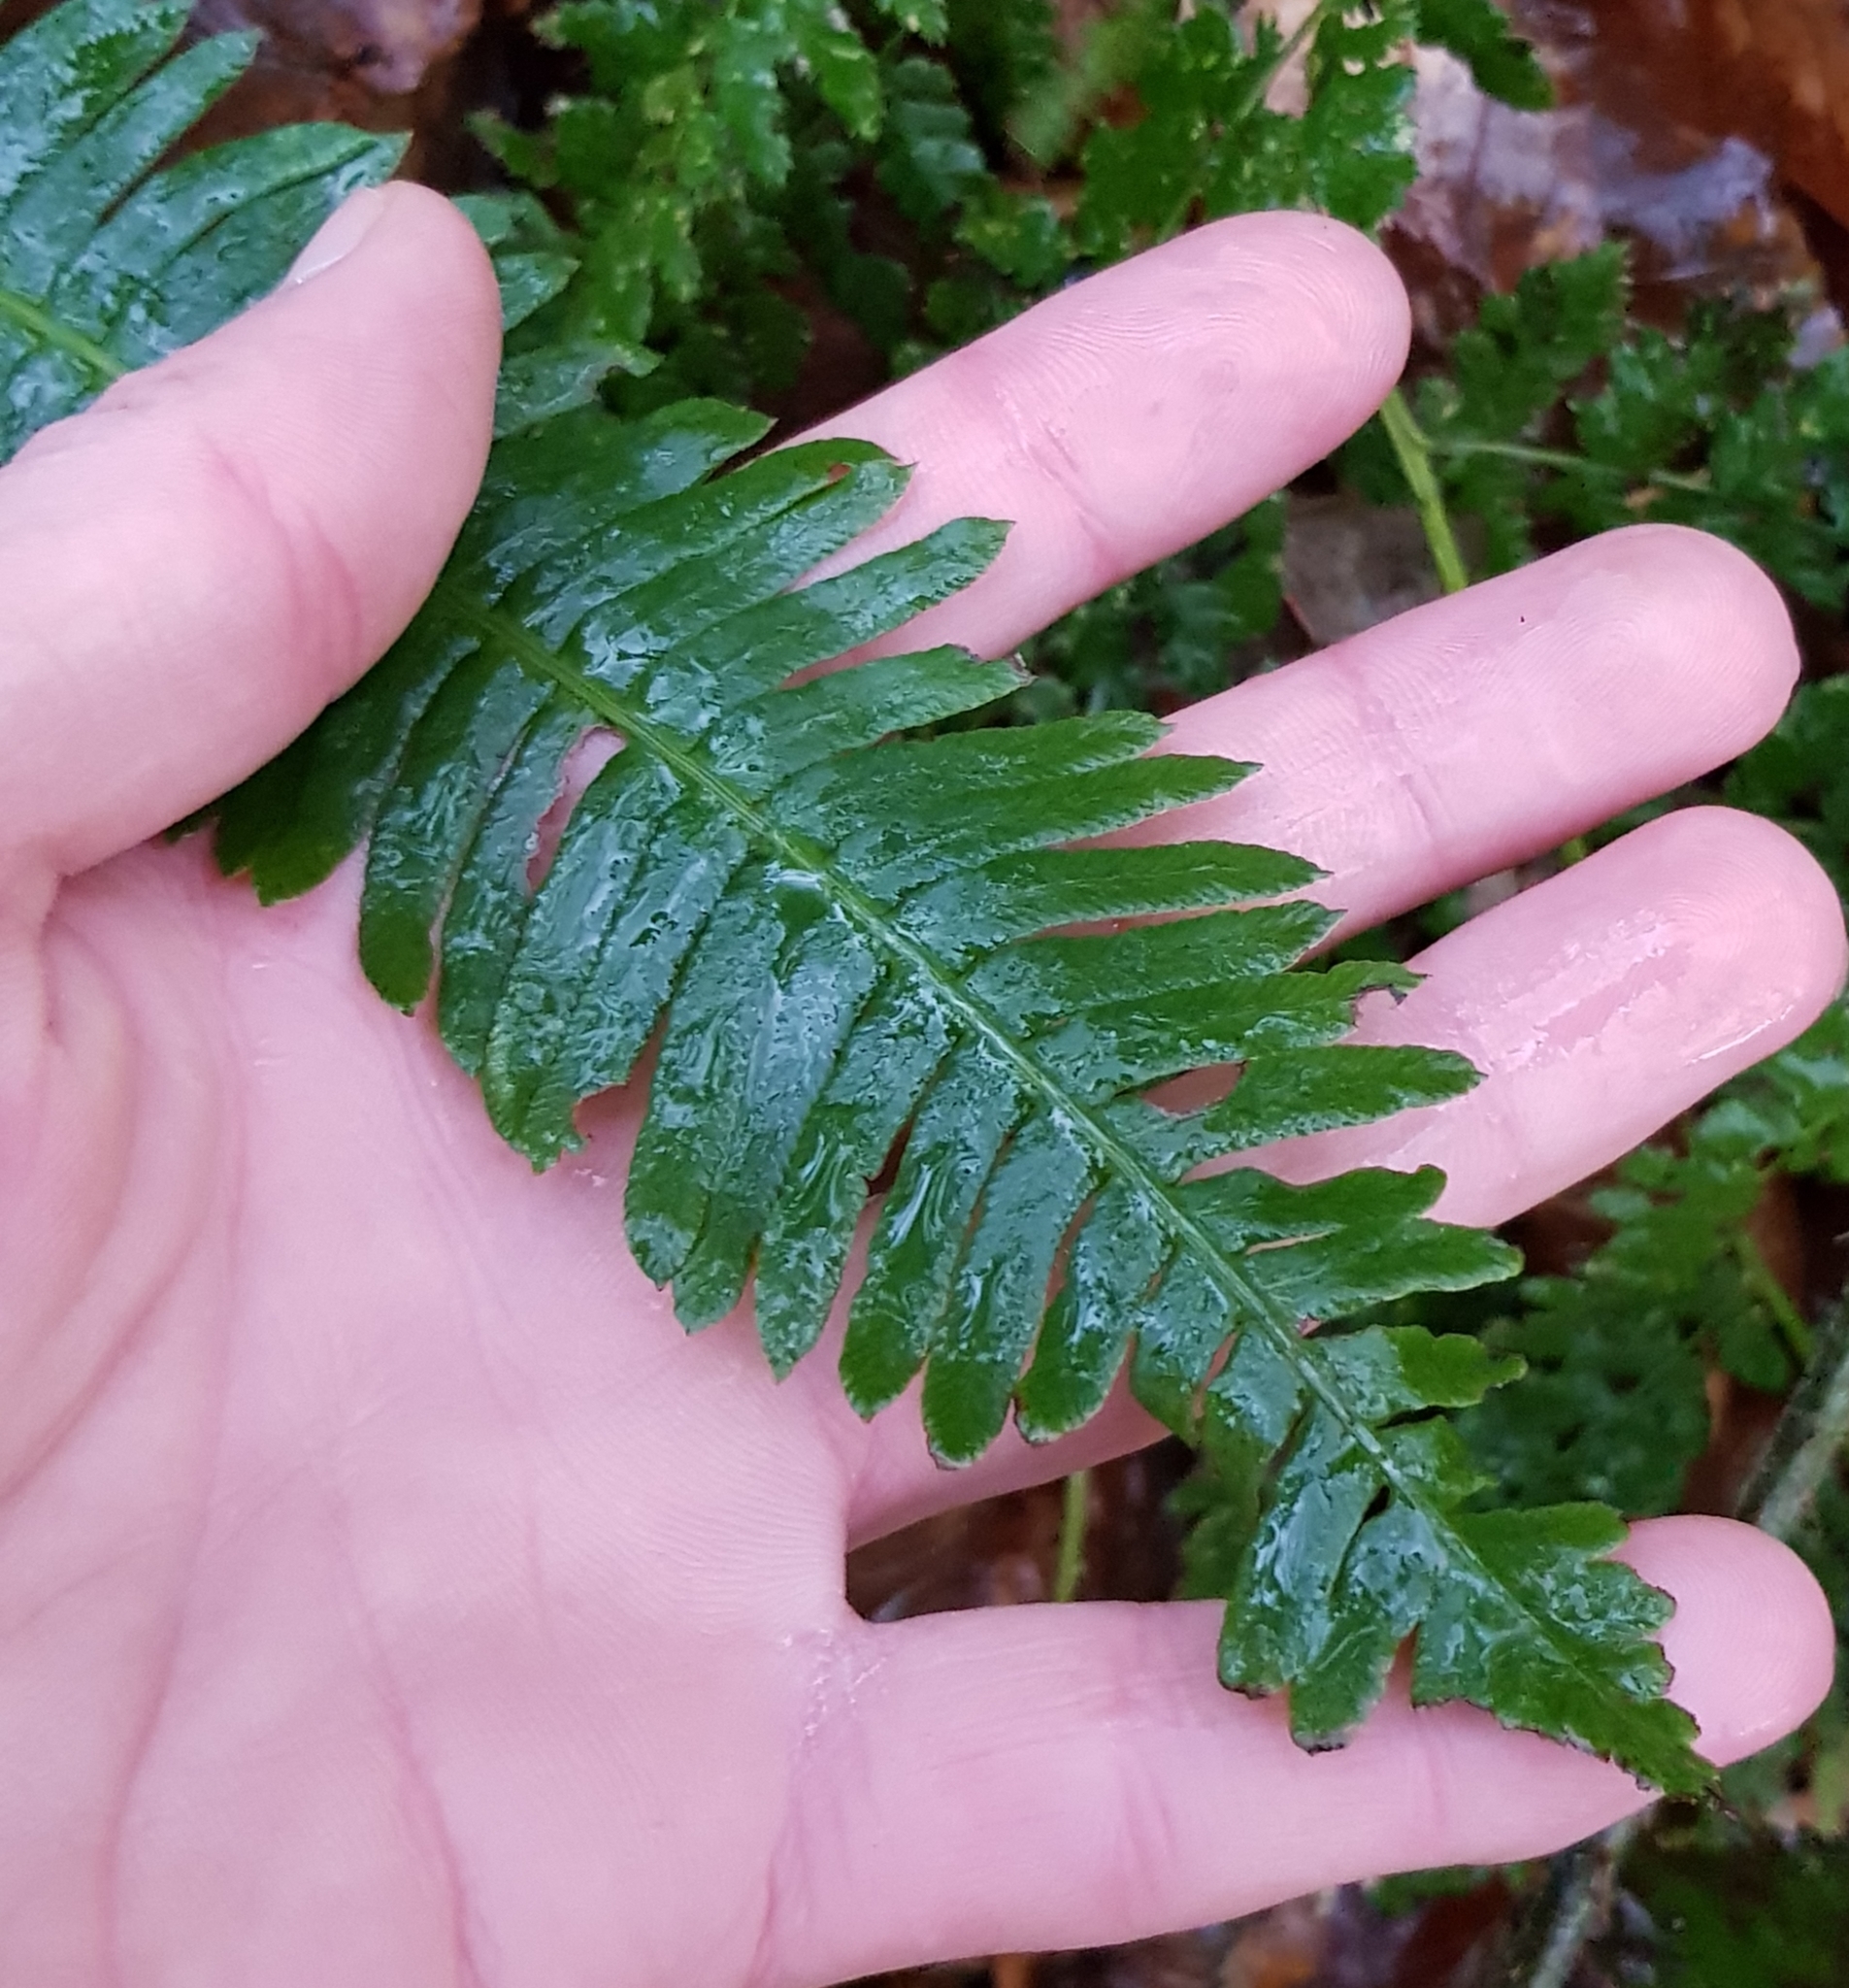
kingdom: Plantae
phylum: Tracheophyta
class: Polypodiopsida
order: Polypodiales
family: Blechnaceae
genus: Struthiopteris
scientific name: Struthiopteris spicant
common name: Deer fern
